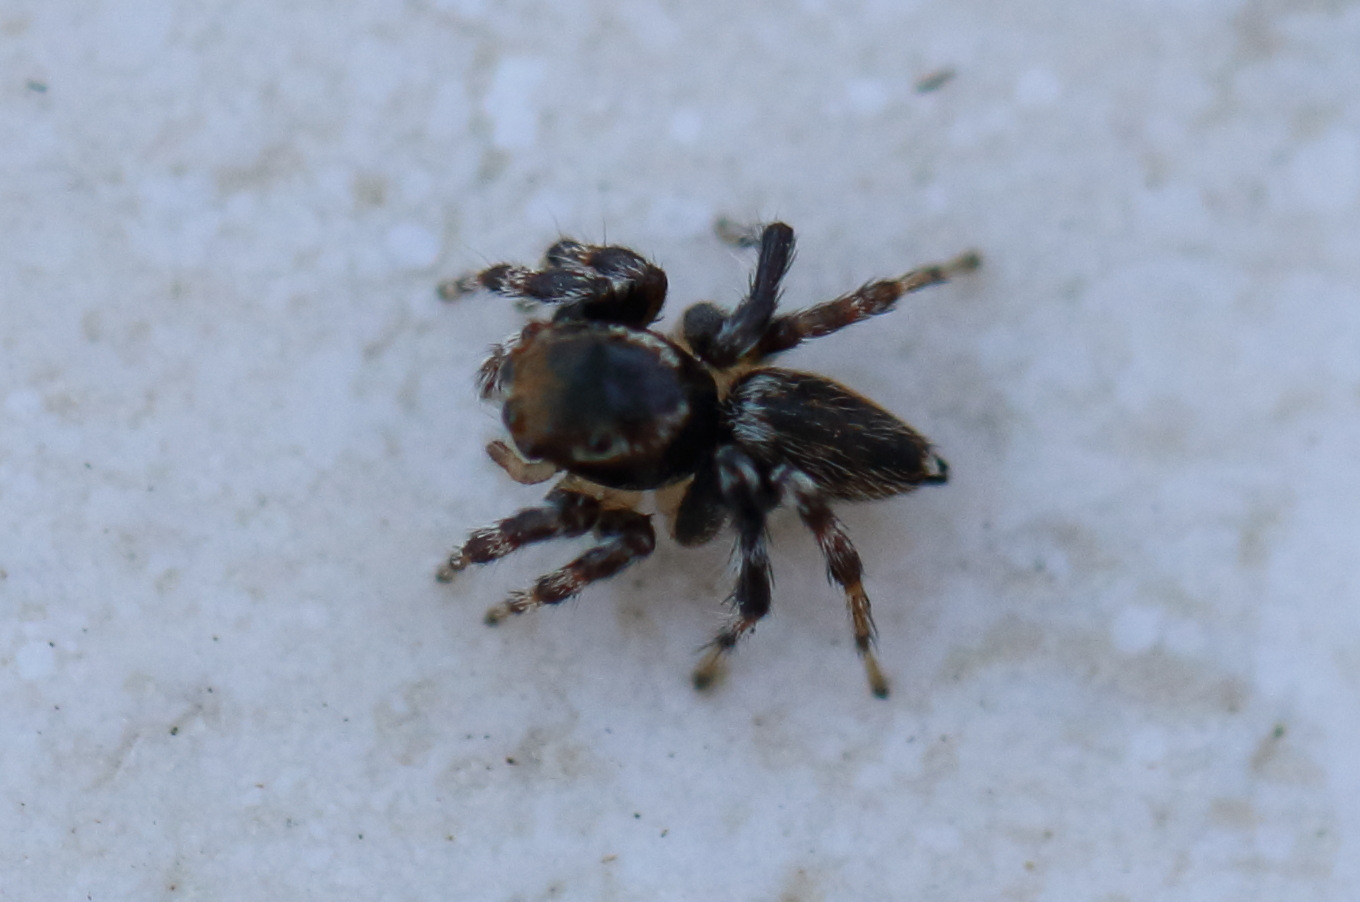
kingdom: Animalia
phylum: Arthropoda
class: Arachnida
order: Araneae
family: Salticidae
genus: Maratus
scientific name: Maratus griseus
